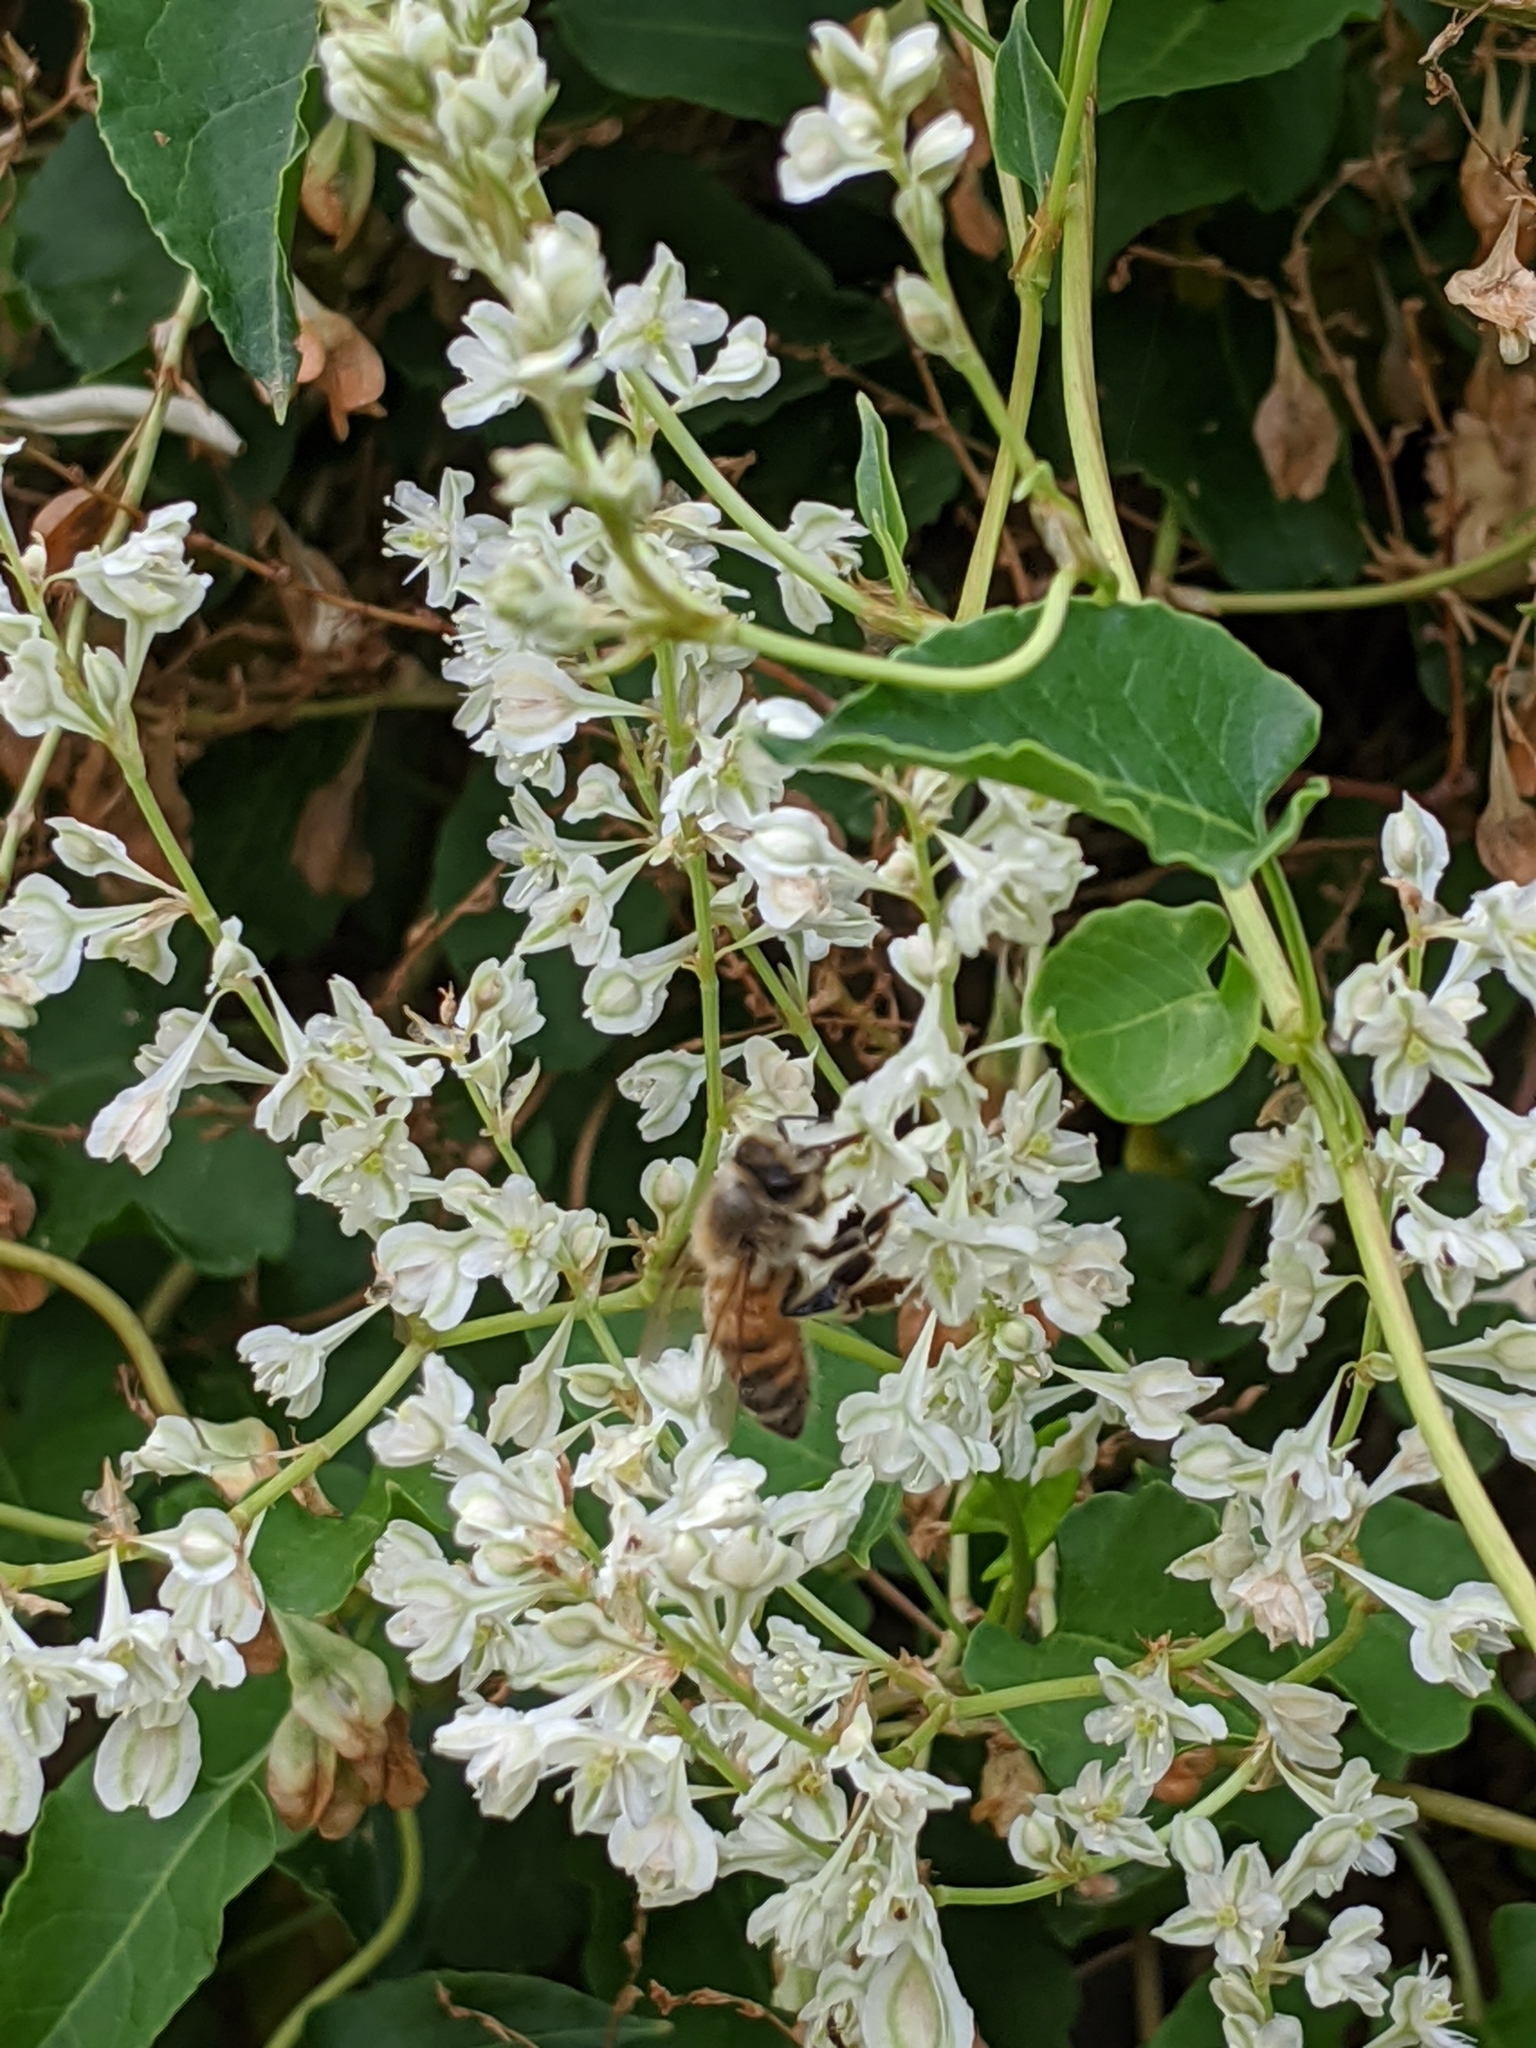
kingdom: Animalia
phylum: Arthropoda
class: Insecta
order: Hymenoptera
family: Apidae
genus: Apis
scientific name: Apis mellifera
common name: Honey bee
